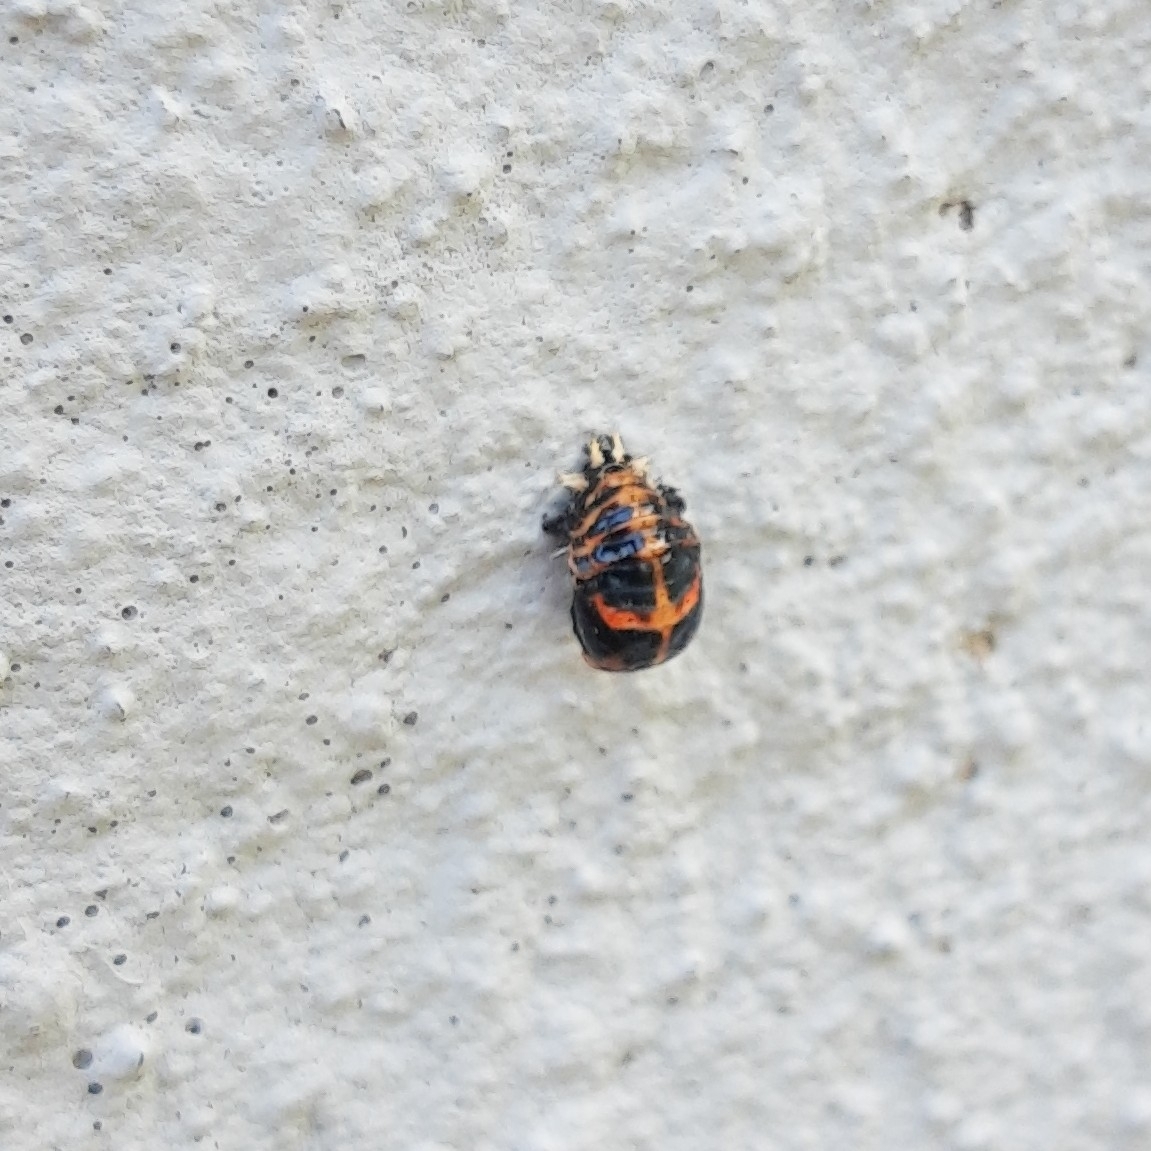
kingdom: Animalia
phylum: Arthropoda
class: Insecta
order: Coleoptera
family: Coccinellidae
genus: Harmonia
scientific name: Harmonia axyridis
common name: Harlequin ladybird
